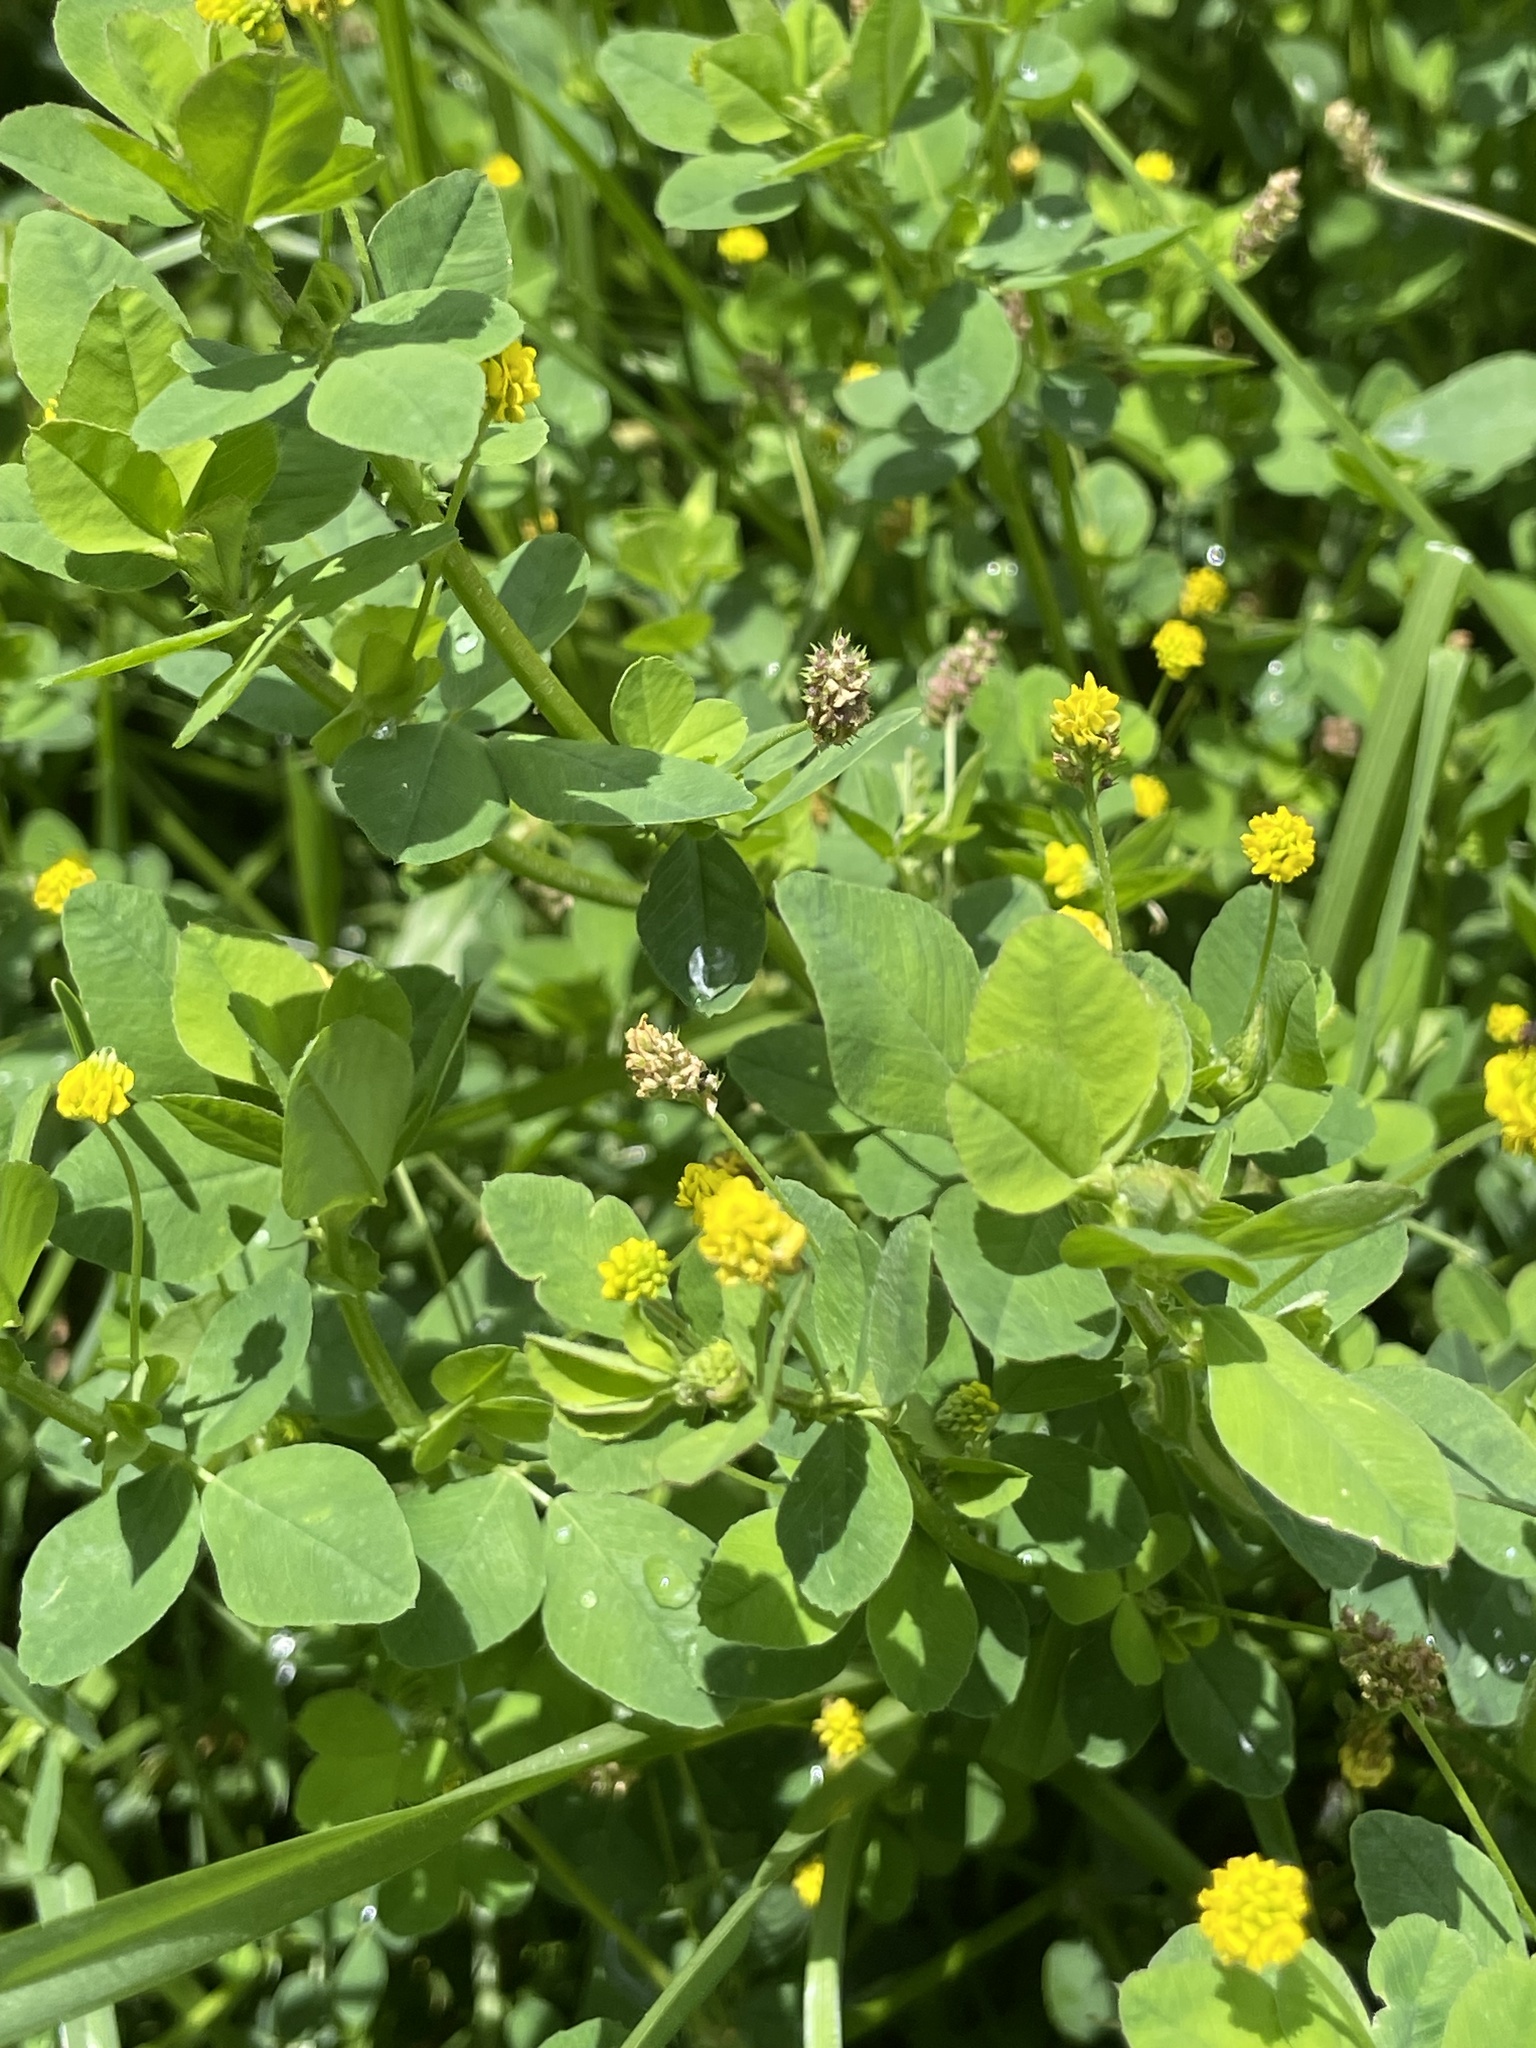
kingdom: Plantae
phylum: Tracheophyta
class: Magnoliopsida
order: Fabales
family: Fabaceae
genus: Medicago
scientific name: Medicago lupulina
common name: Black medick
